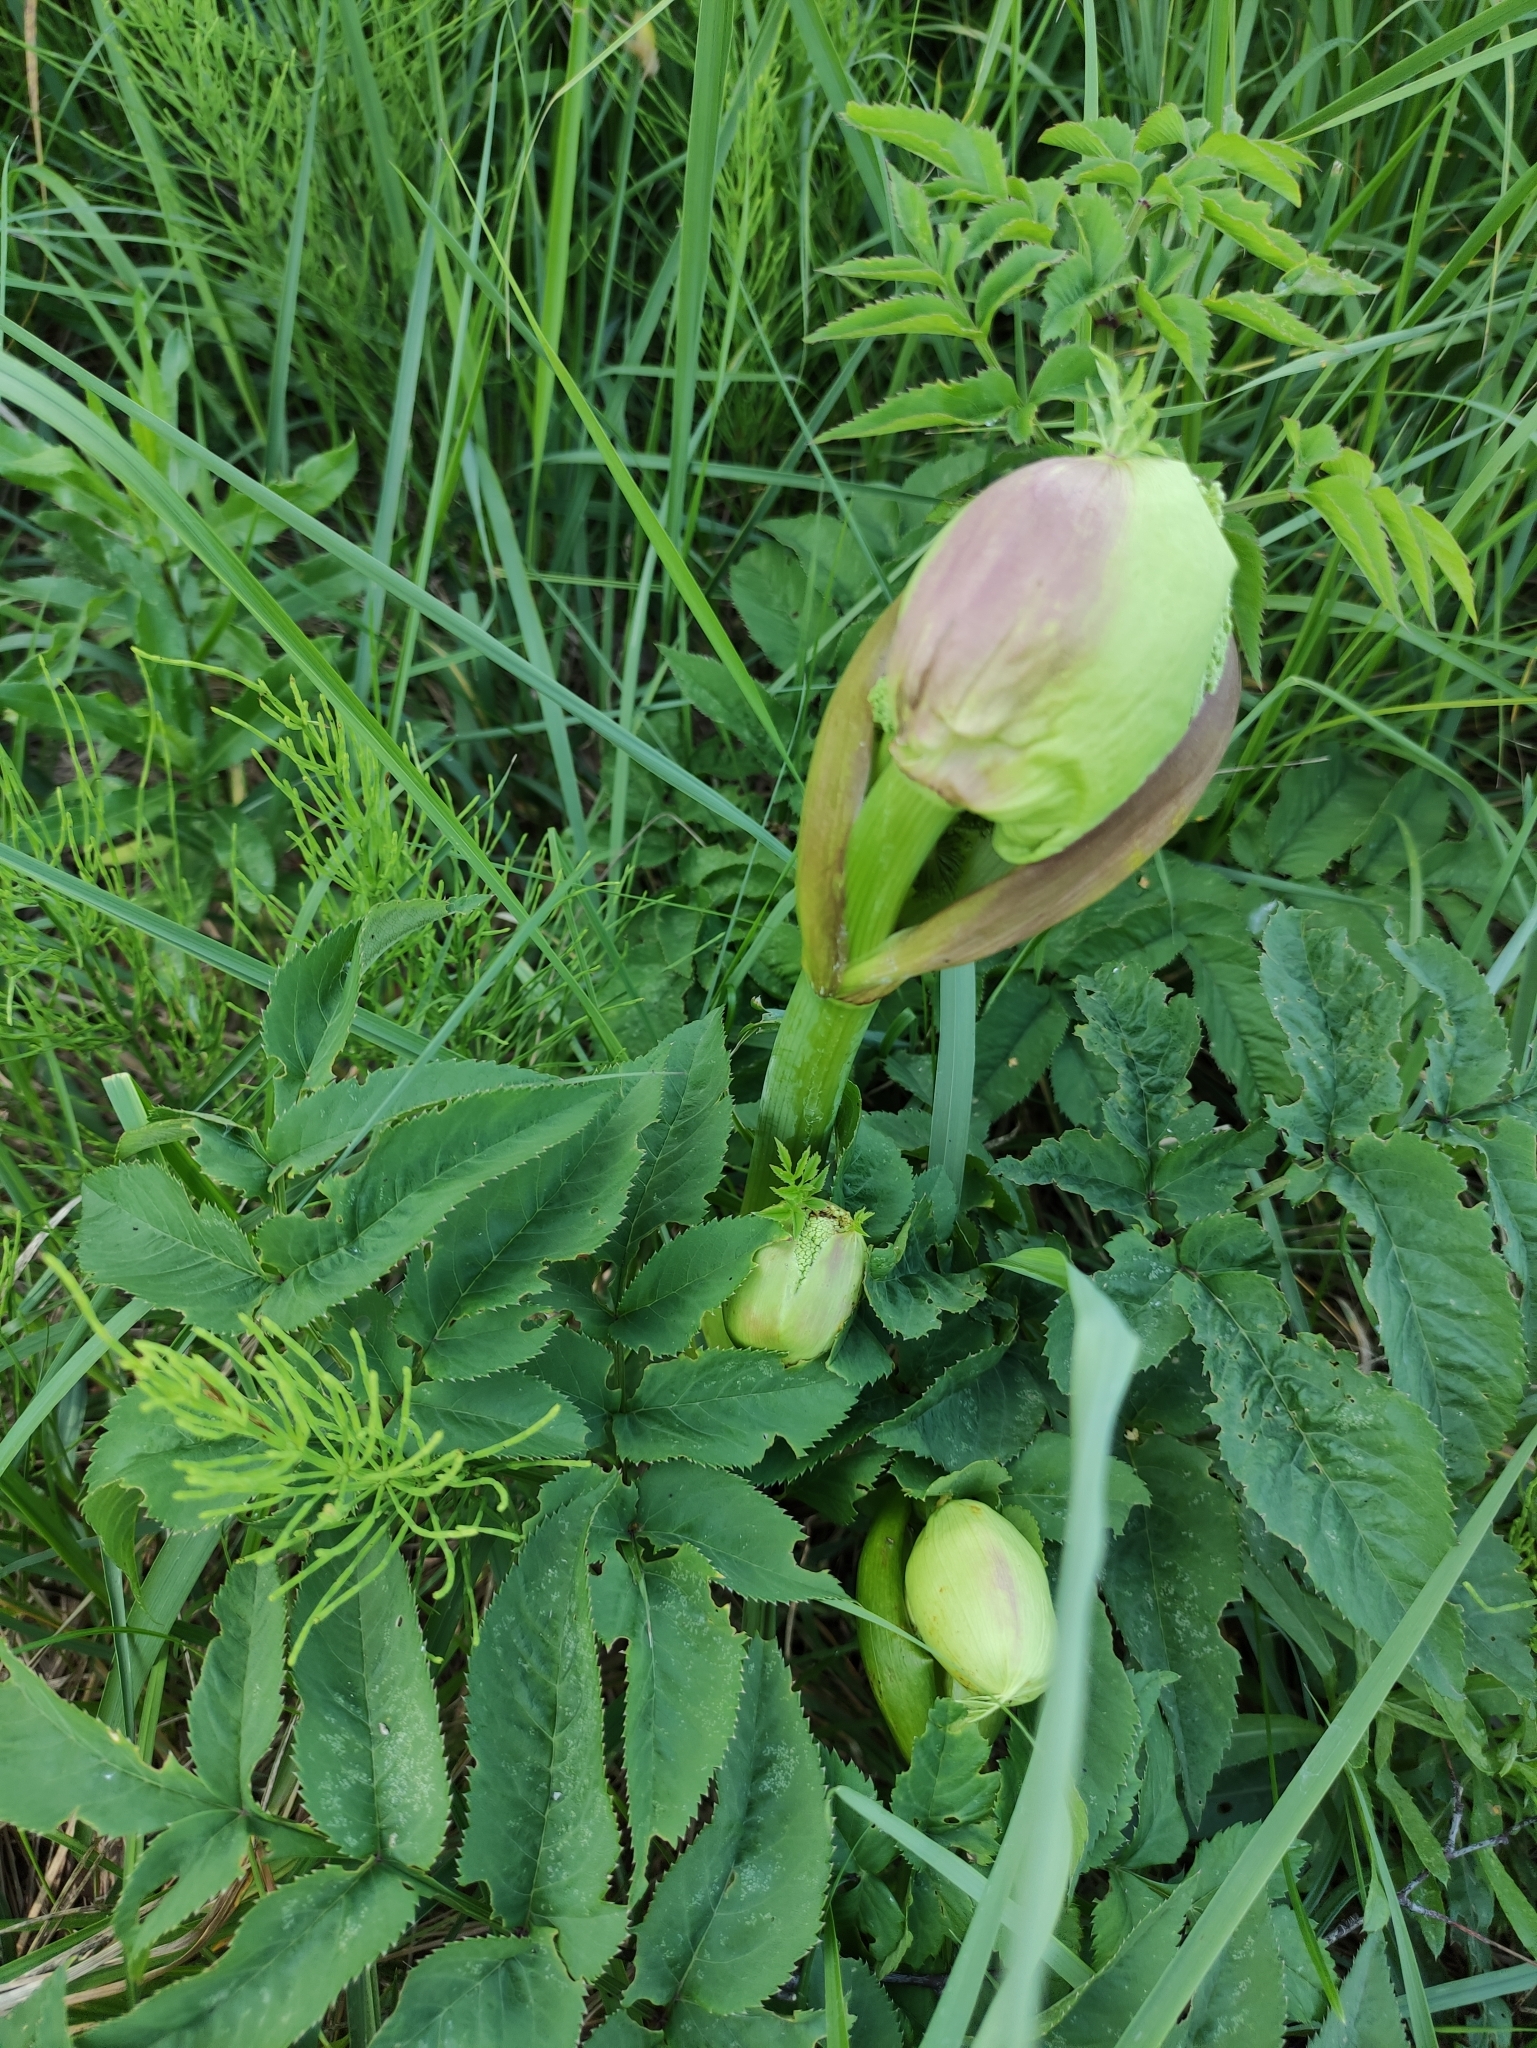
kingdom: Plantae
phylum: Tracheophyta
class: Magnoliopsida
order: Apiales
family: Apiaceae
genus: Angelica
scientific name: Angelica sylvestris
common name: Wild angelica
